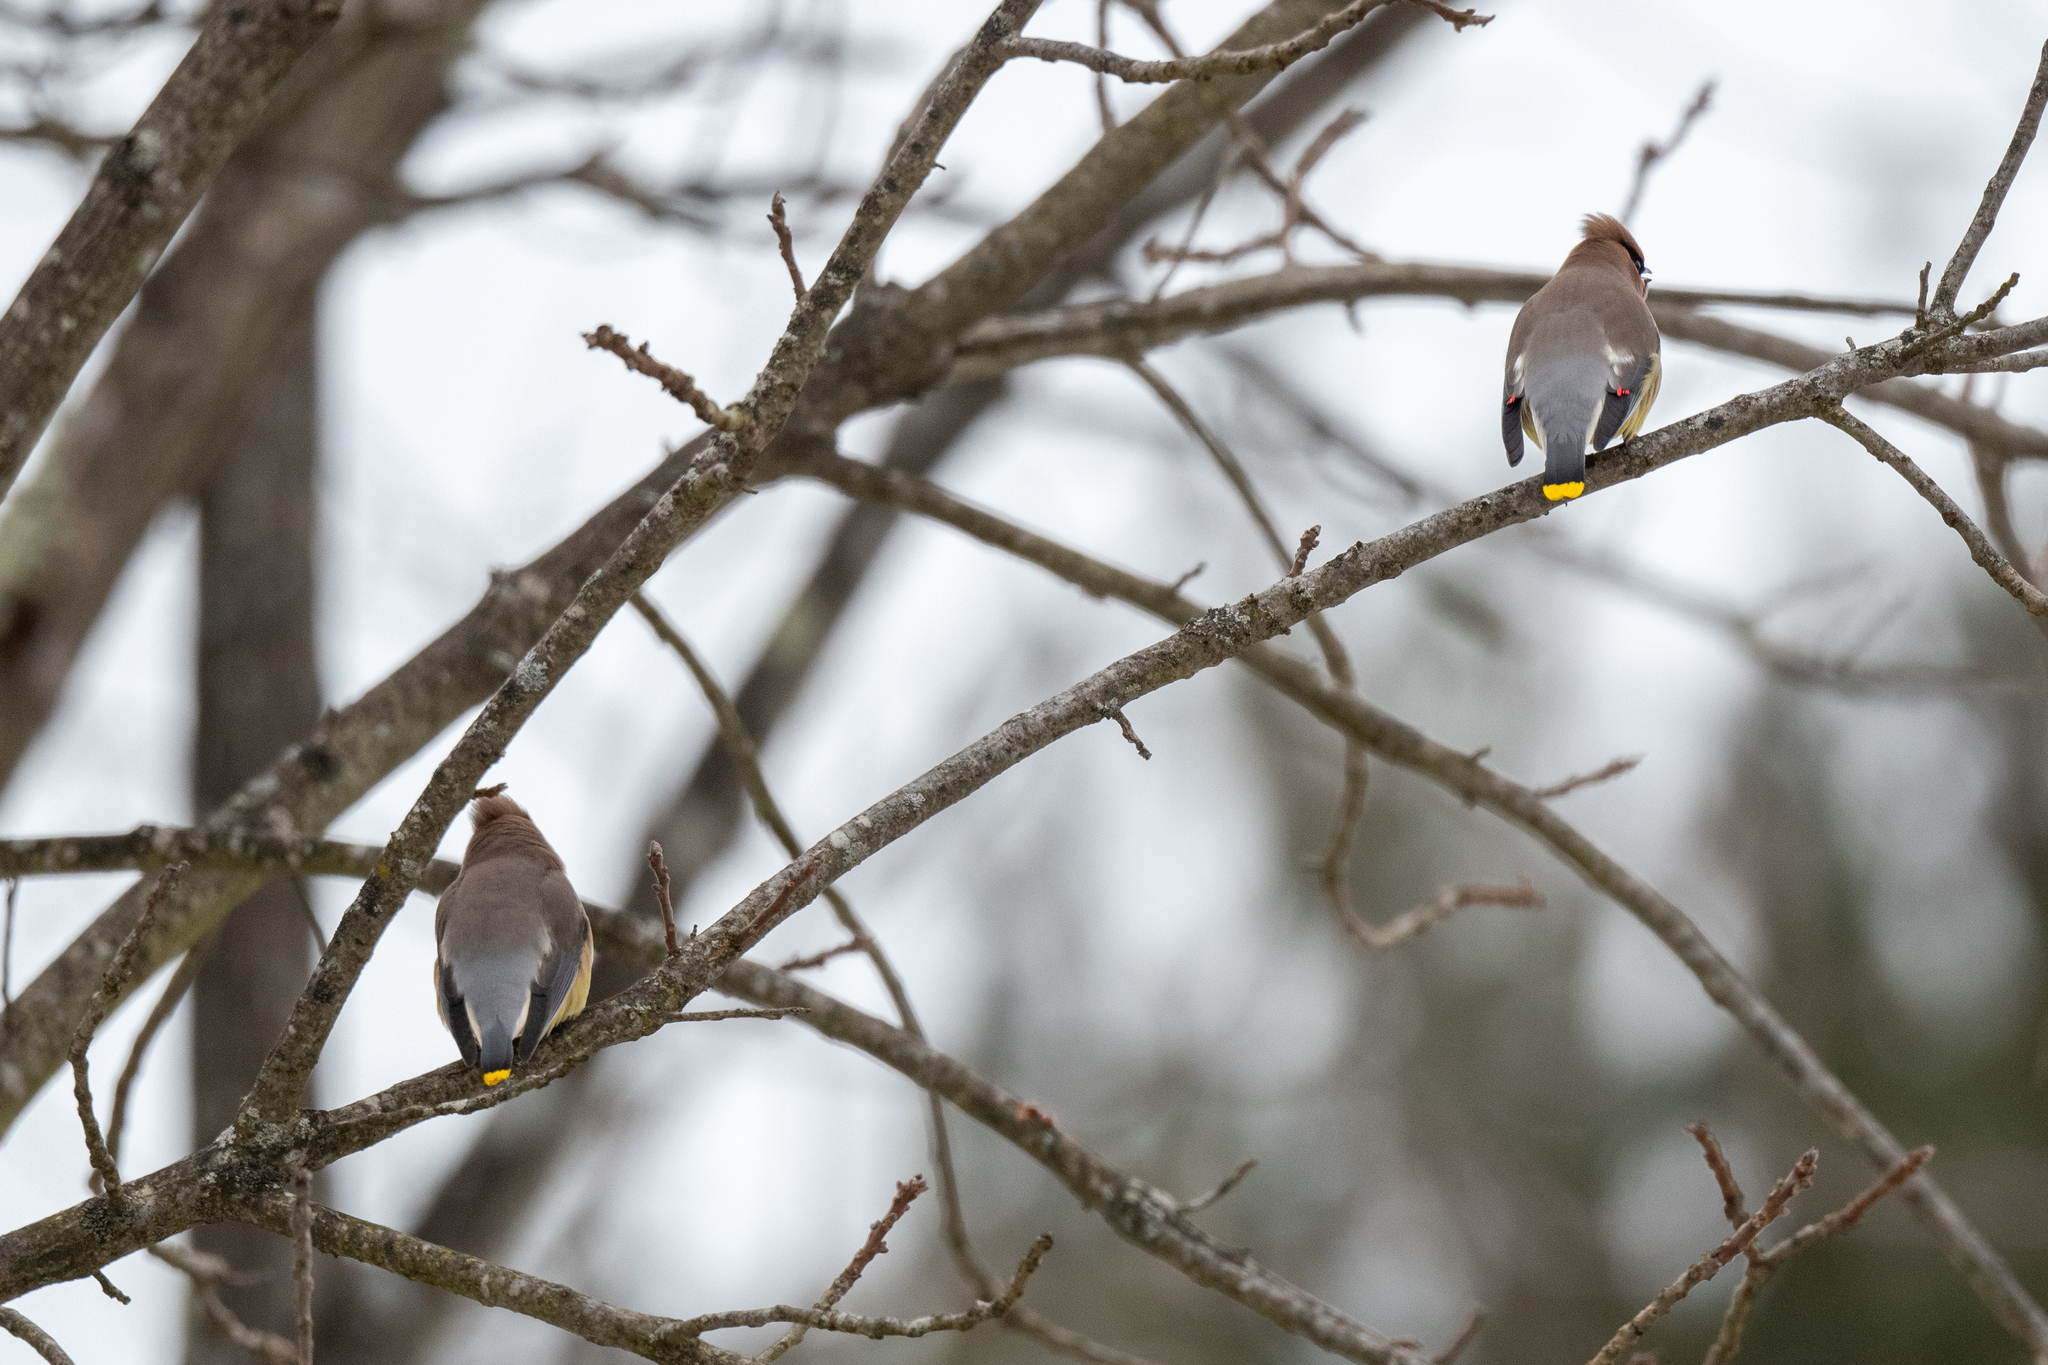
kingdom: Animalia
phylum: Chordata
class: Aves
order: Passeriformes
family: Bombycillidae
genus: Bombycilla
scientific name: Bombycilla cedrorum
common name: Cedar waxwing
